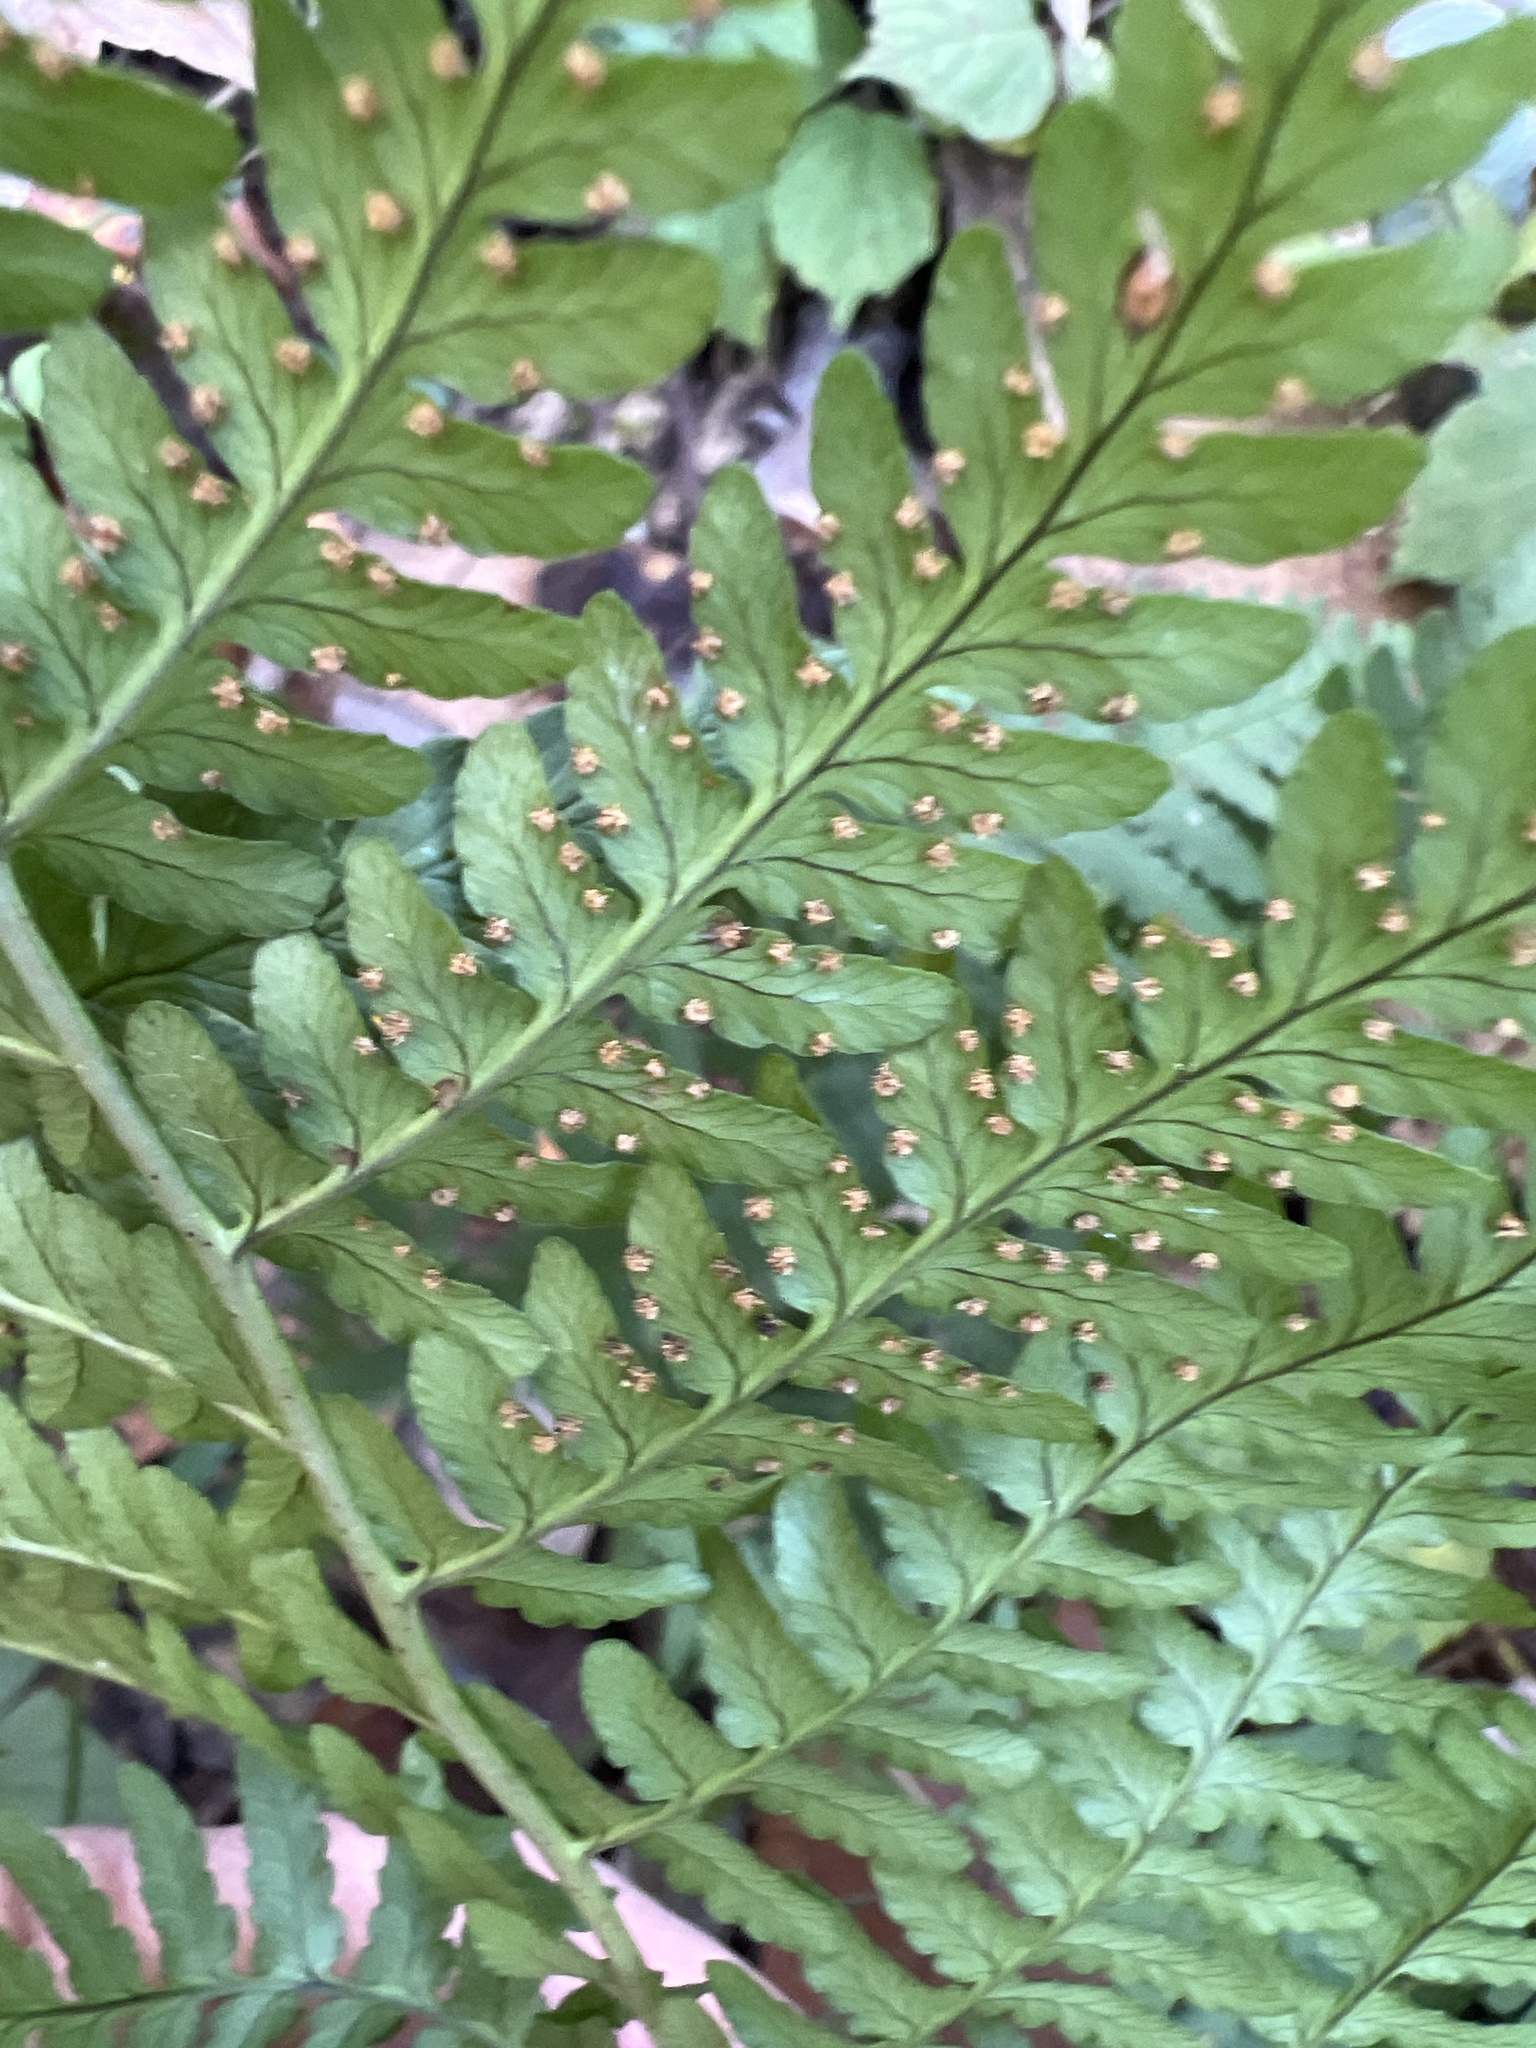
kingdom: Plantae
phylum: Tracheophyta
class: Polypodiopsida
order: Polypodiales
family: Dryopteridaceae
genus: Dryopteris
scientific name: Dryopteris marginalis
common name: Marginal wood fern
